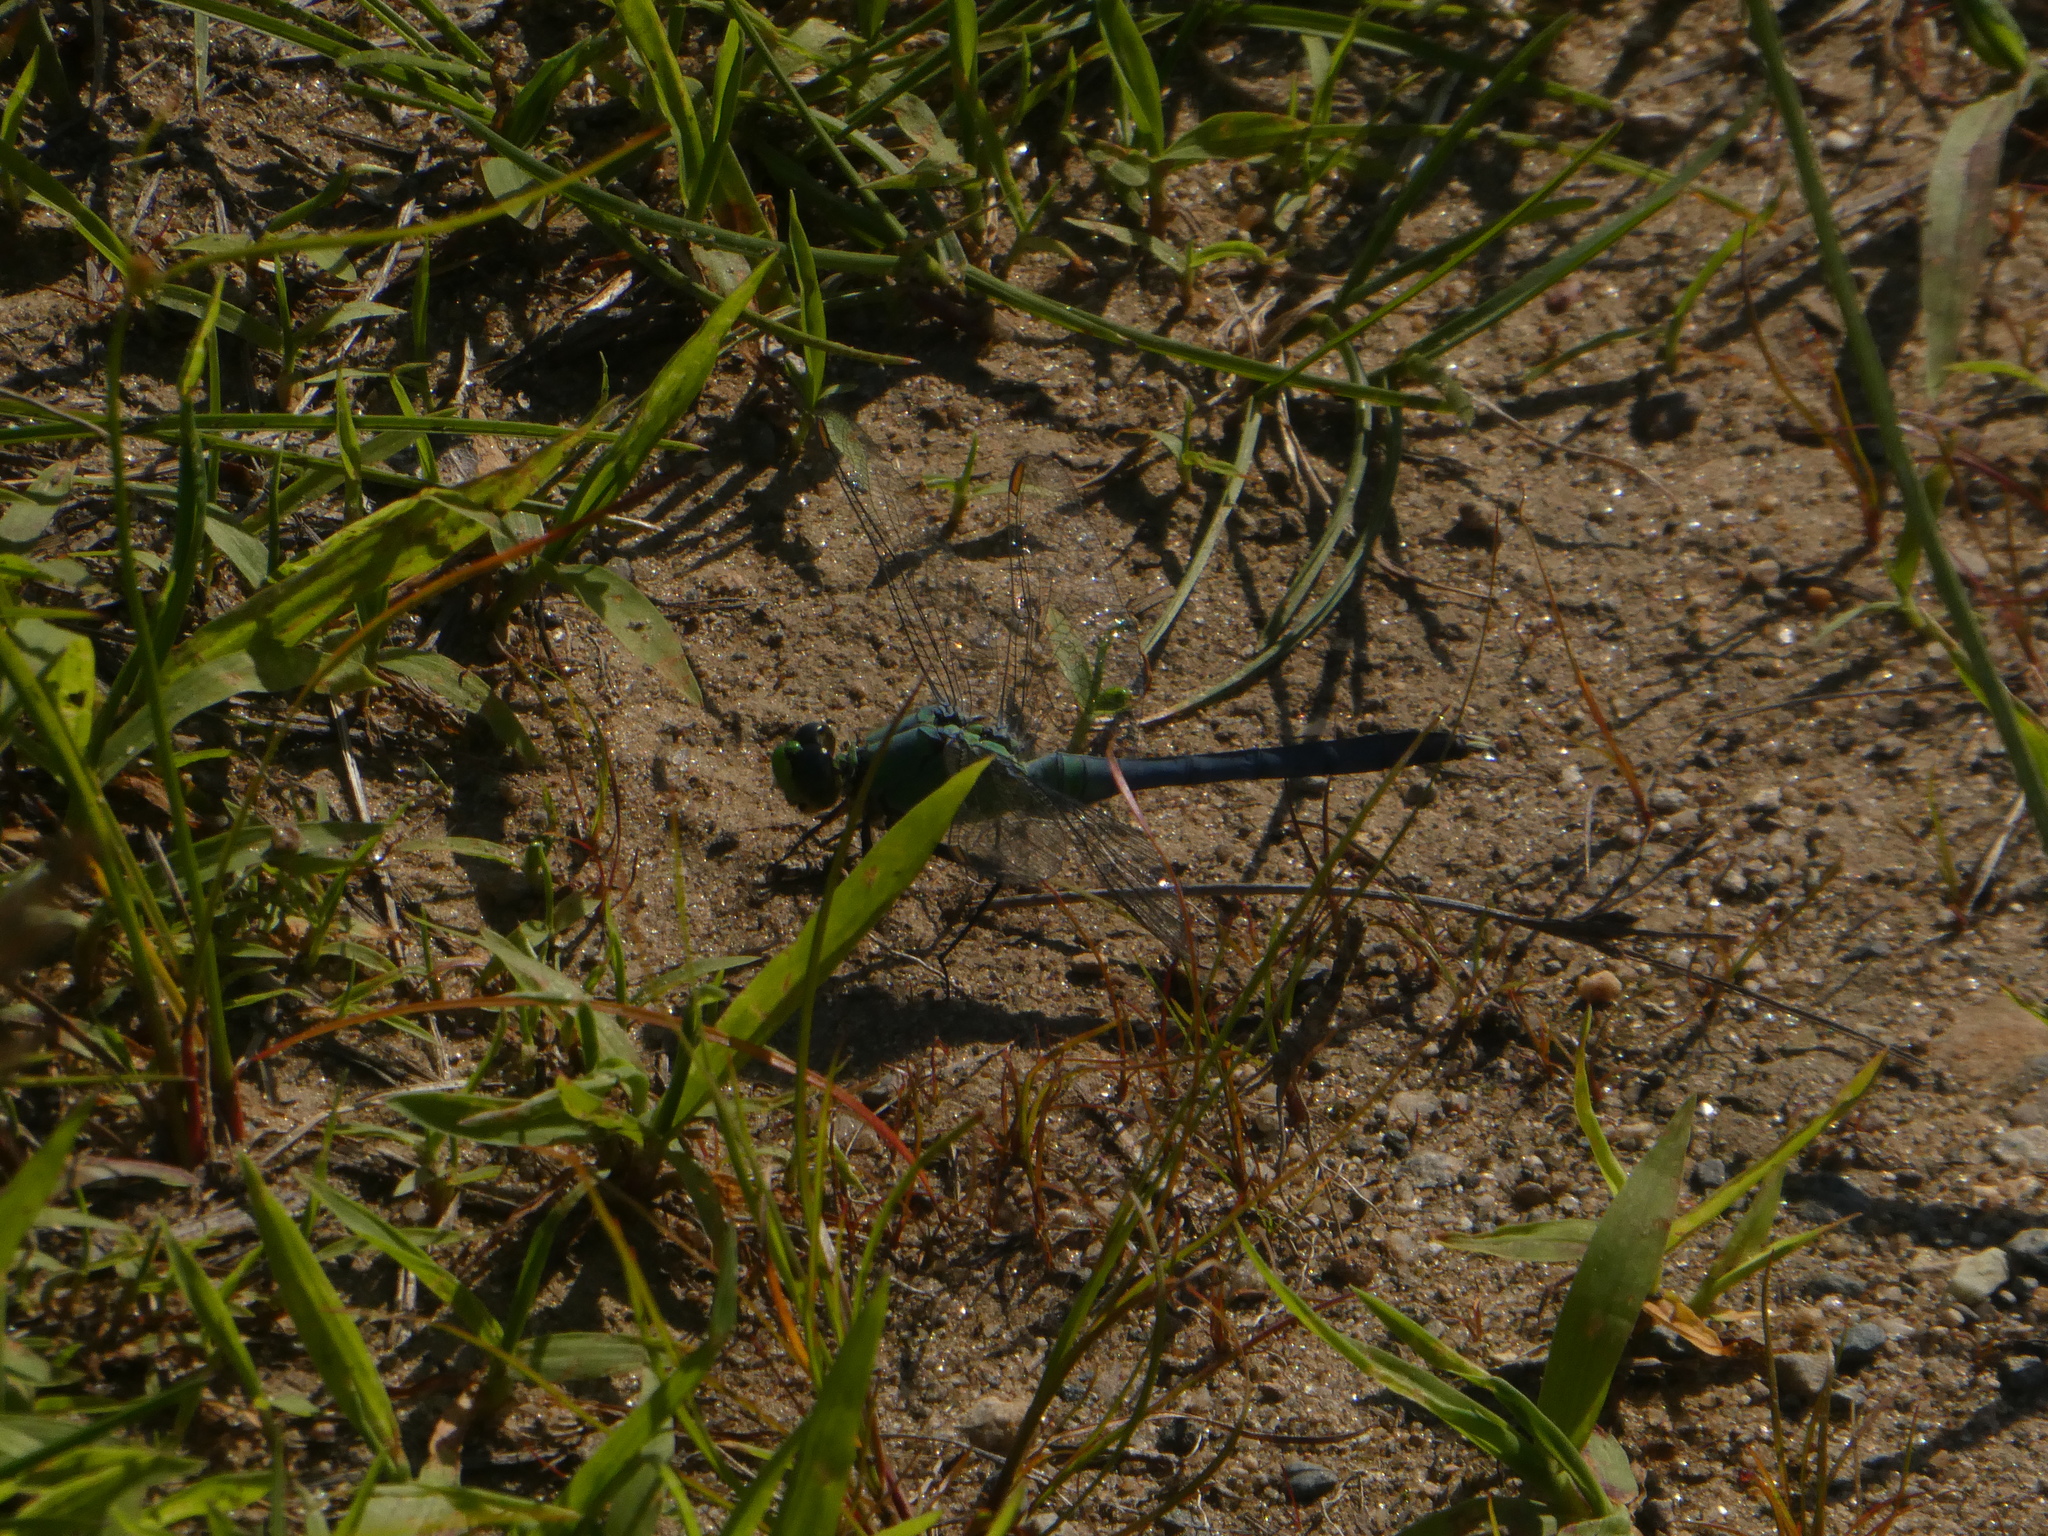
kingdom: Animalia
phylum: Arthropoda
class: Insecta
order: Odonata
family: Libellulidae
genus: Erythemis
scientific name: Erythemis simplicicollis
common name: Eastern pondhawk
